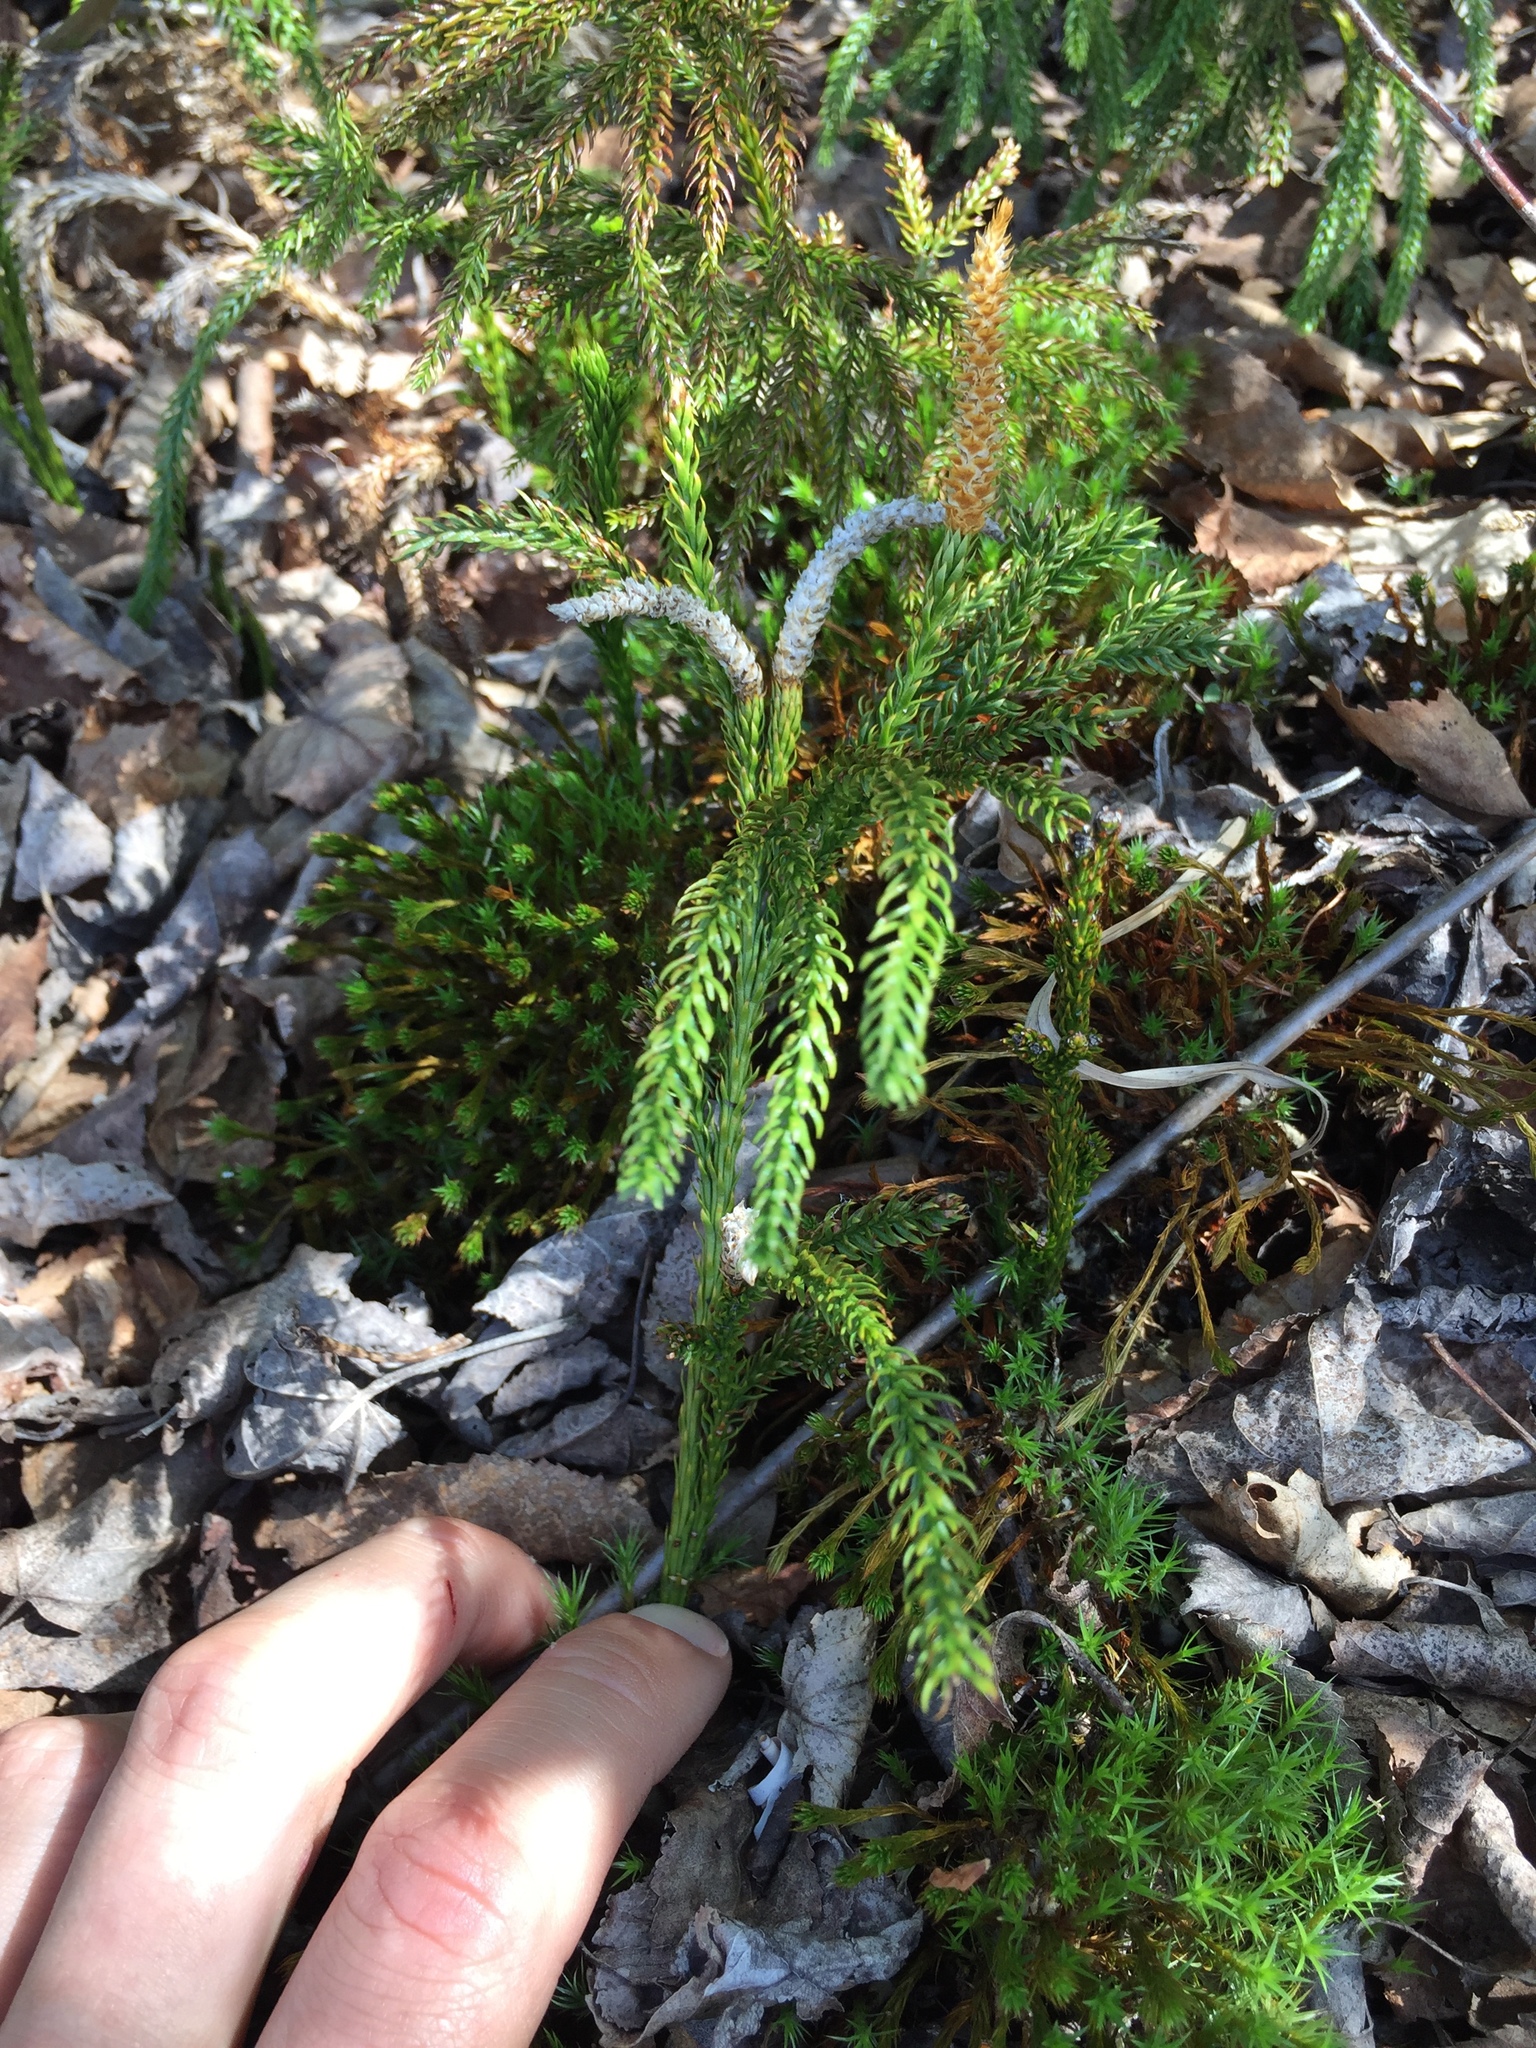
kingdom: Plantae
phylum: Tracheophyta
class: Lycopodiopsida
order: Lycopodiales
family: Lycopodiaceae
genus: Dendrolycopodium
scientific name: Dendrolycopodium obscurum
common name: Common ground-pine
